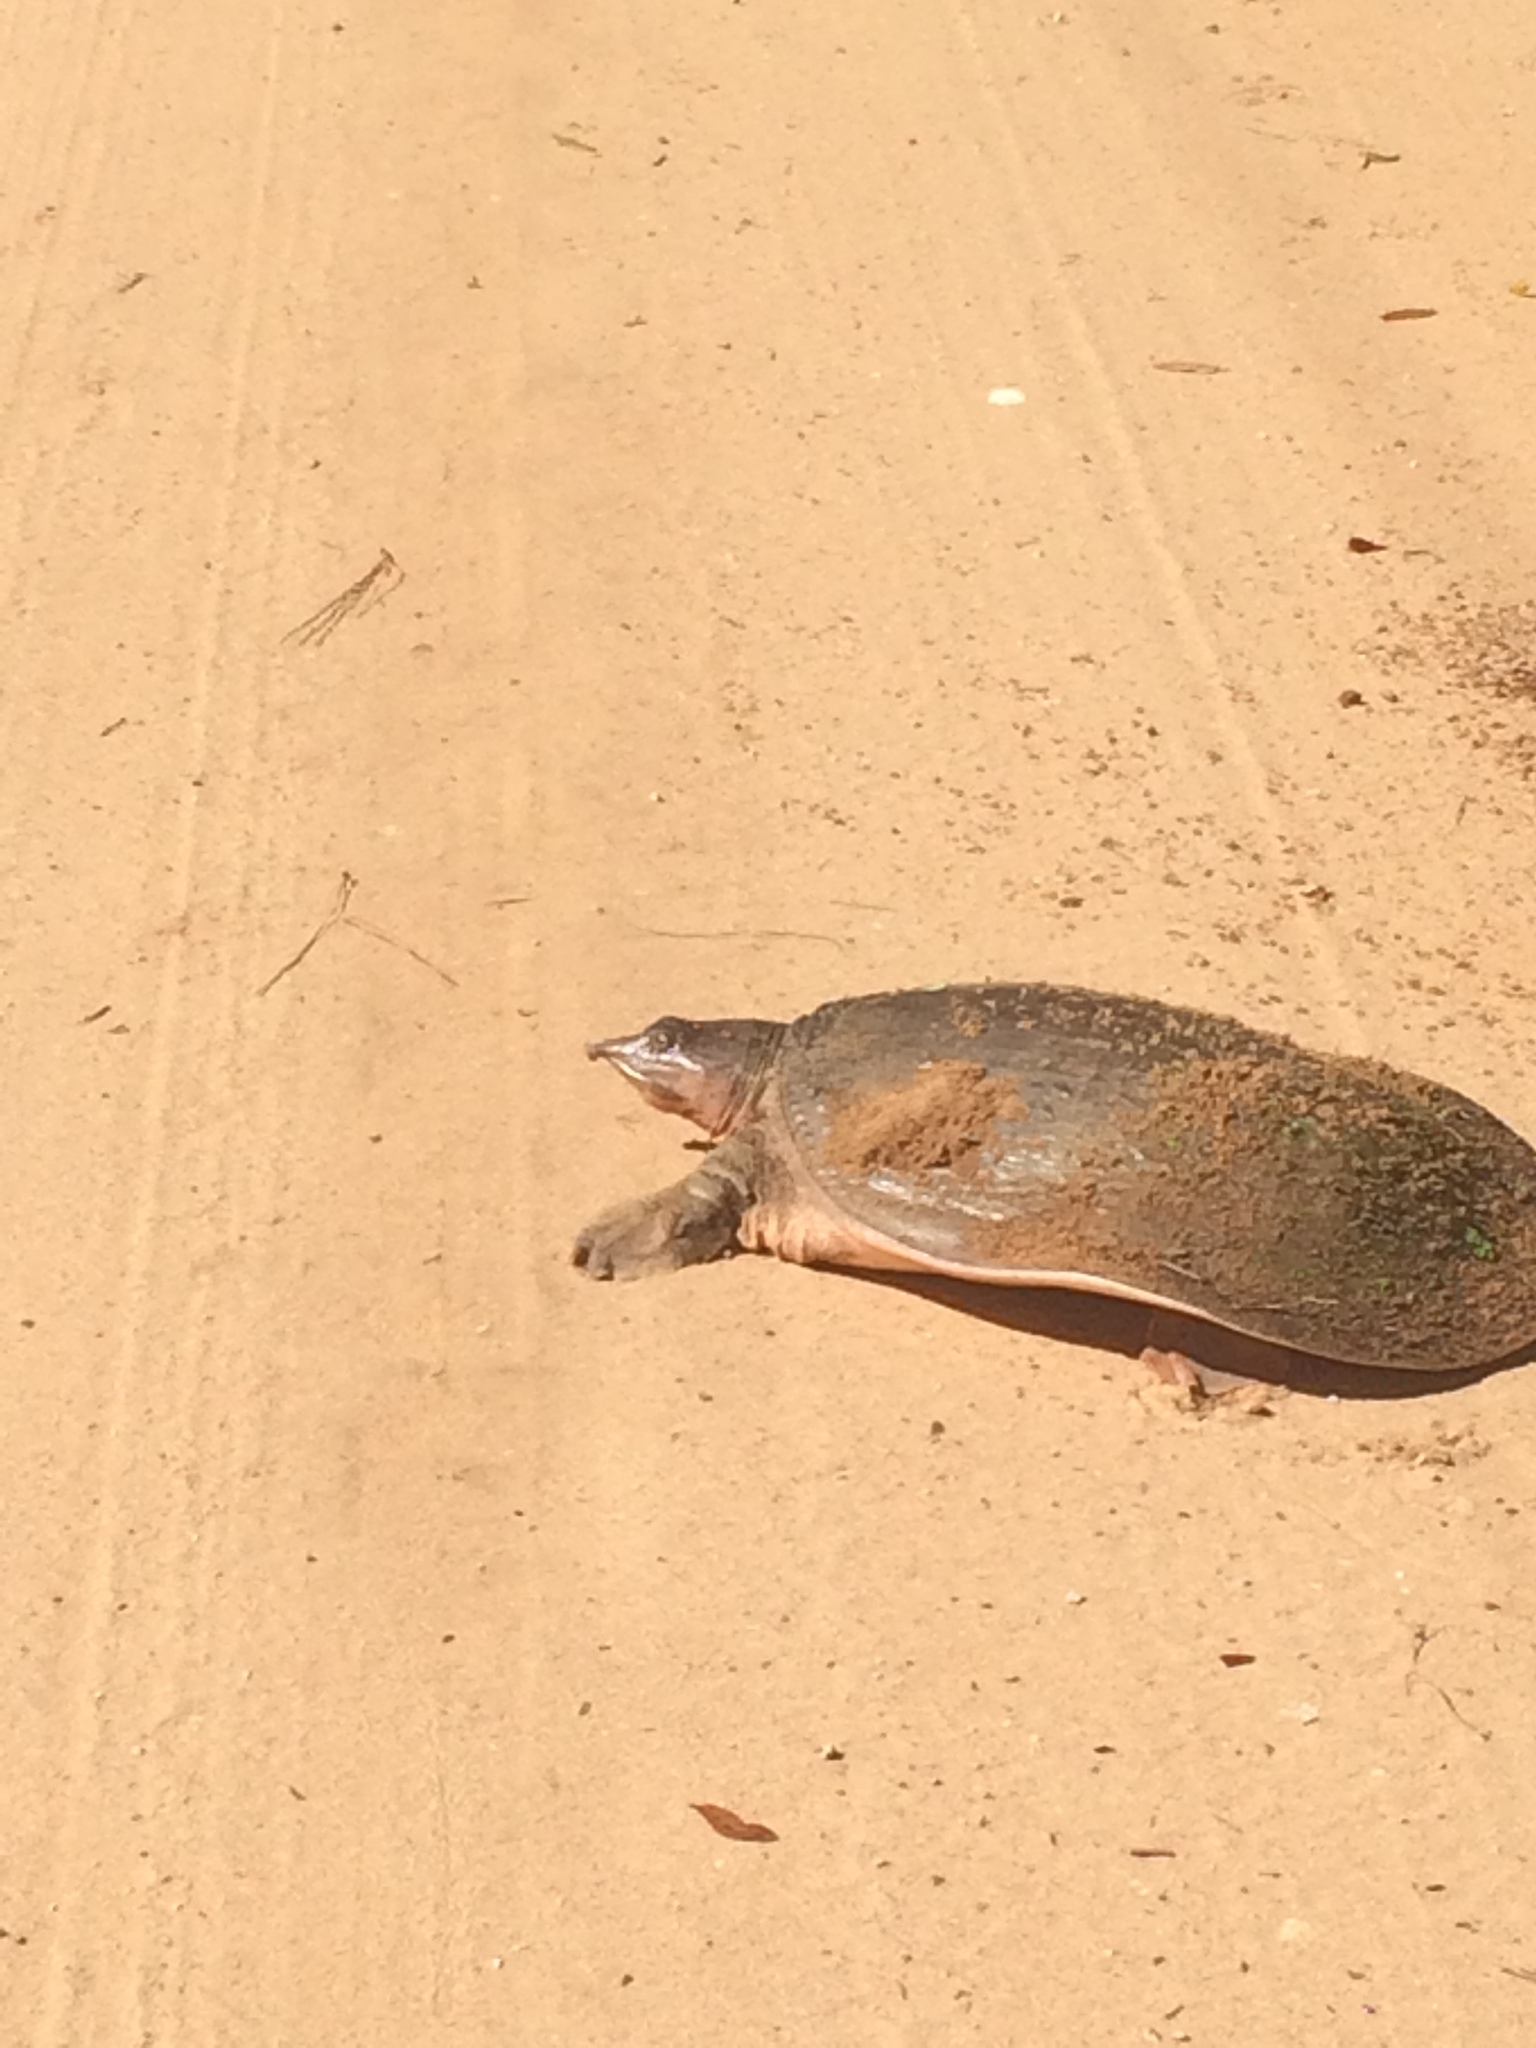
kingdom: Animalia
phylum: Chordata
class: Testudines
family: Trionychidae
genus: Apalone
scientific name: Apalone ferox
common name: Florida softshell turtle
